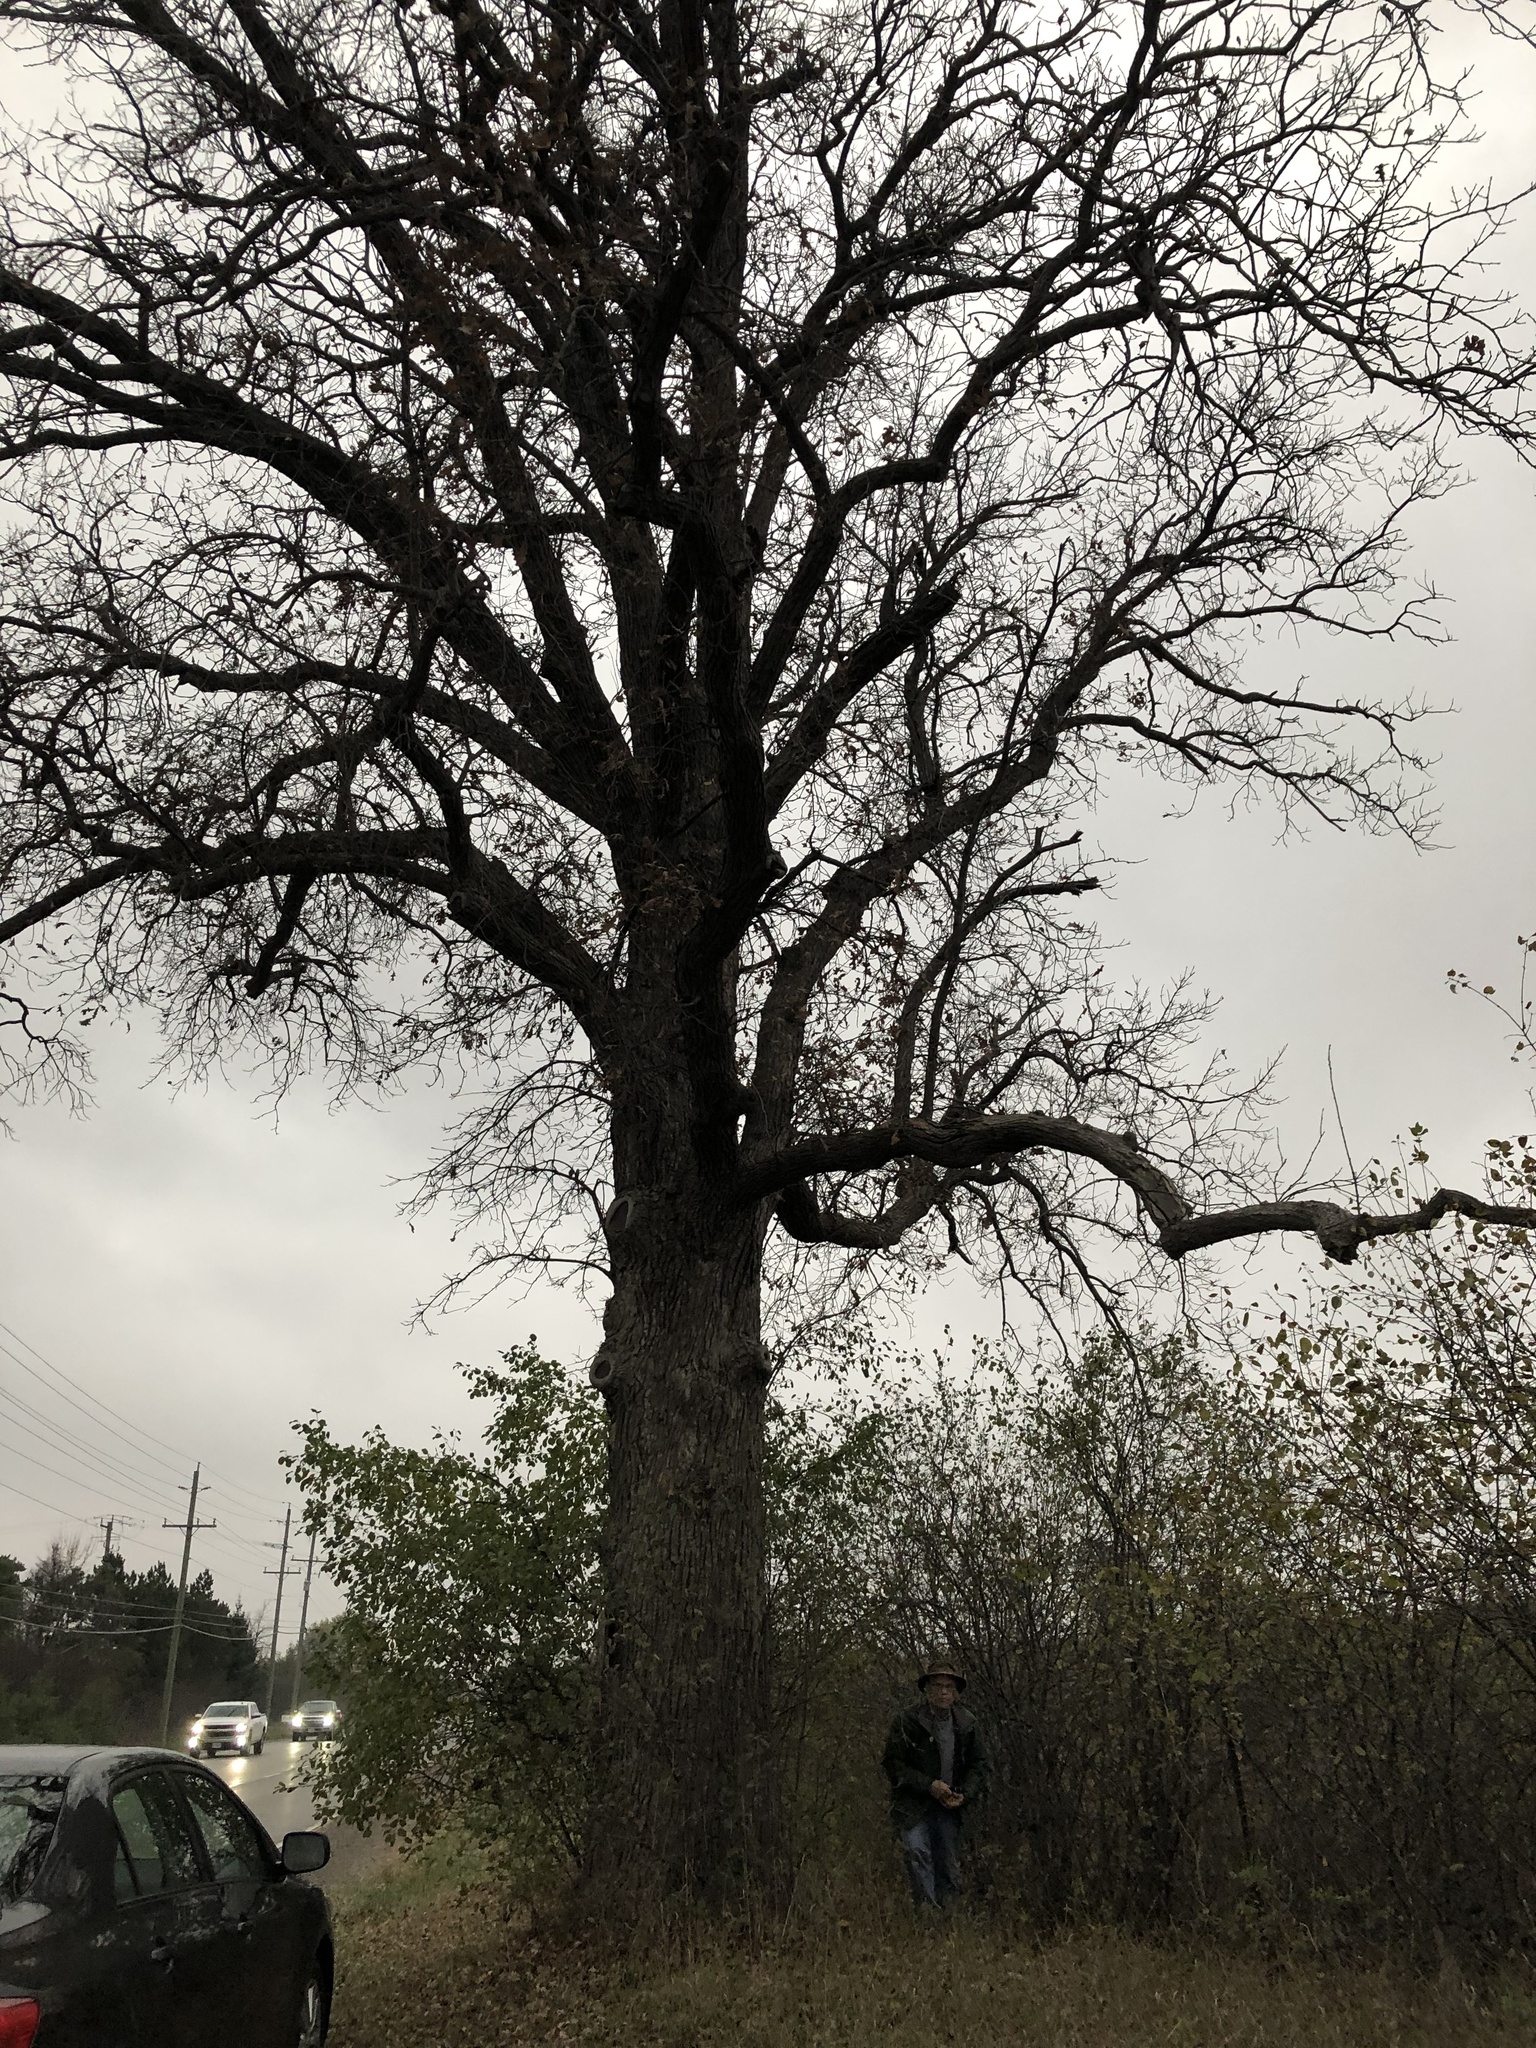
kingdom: Plantae
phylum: Tracheophyta
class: Magnoliopsida
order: Fagales
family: Fagaceae
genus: Quercus
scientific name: Quercus macrocarpa
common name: Bur oak
